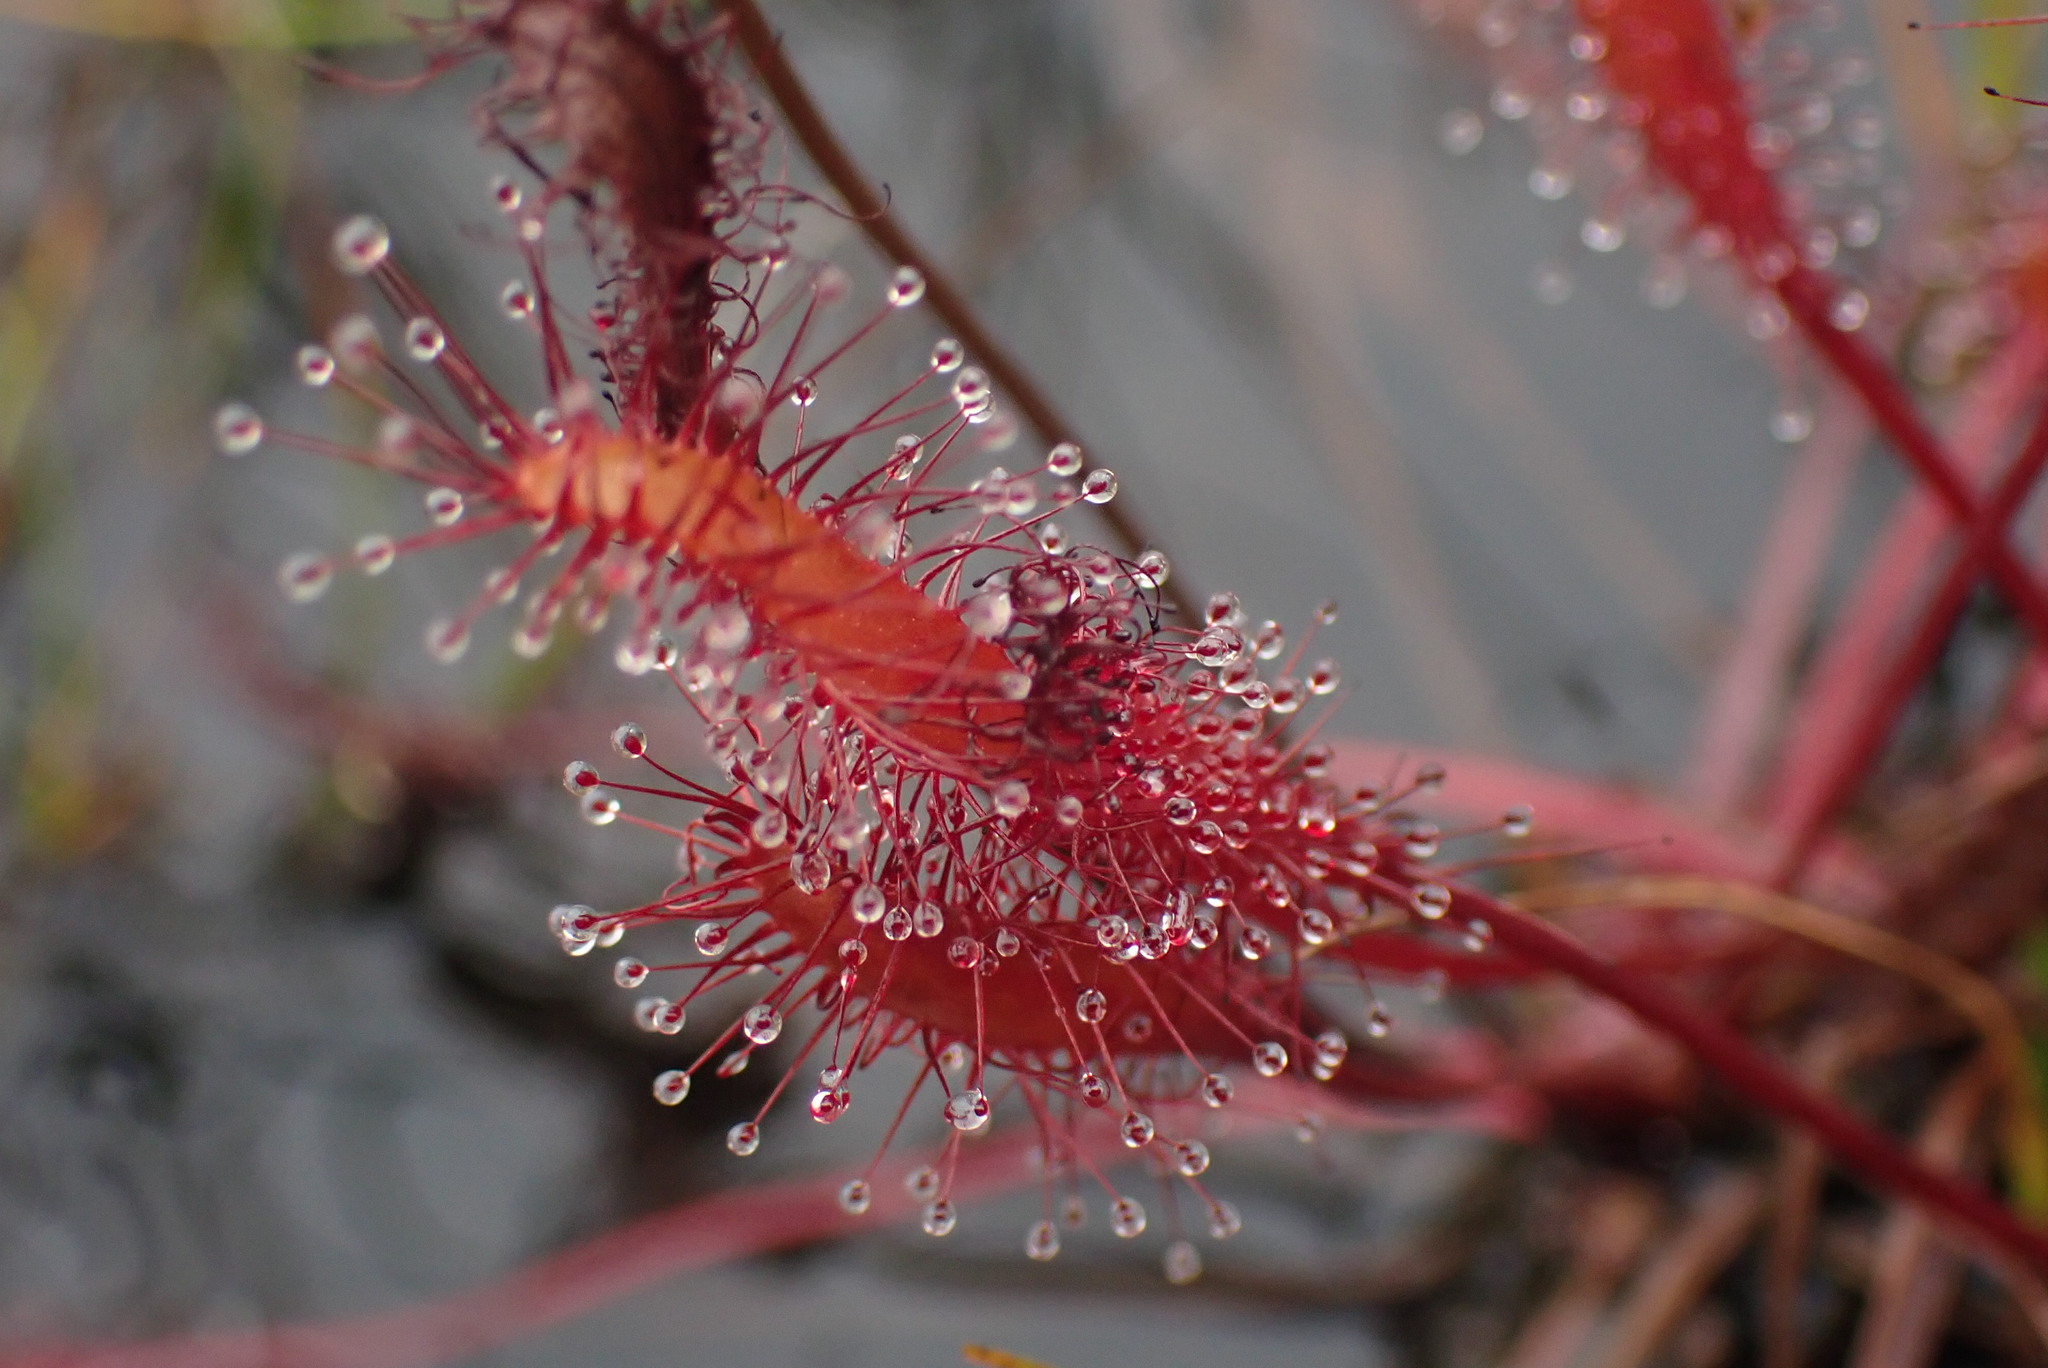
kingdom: Plantae
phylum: Tracheophyta
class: Magnoliopsida
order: Caryophyllales
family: Droseraceae
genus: Drosera
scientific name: Drosera anglica
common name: Great sundew
